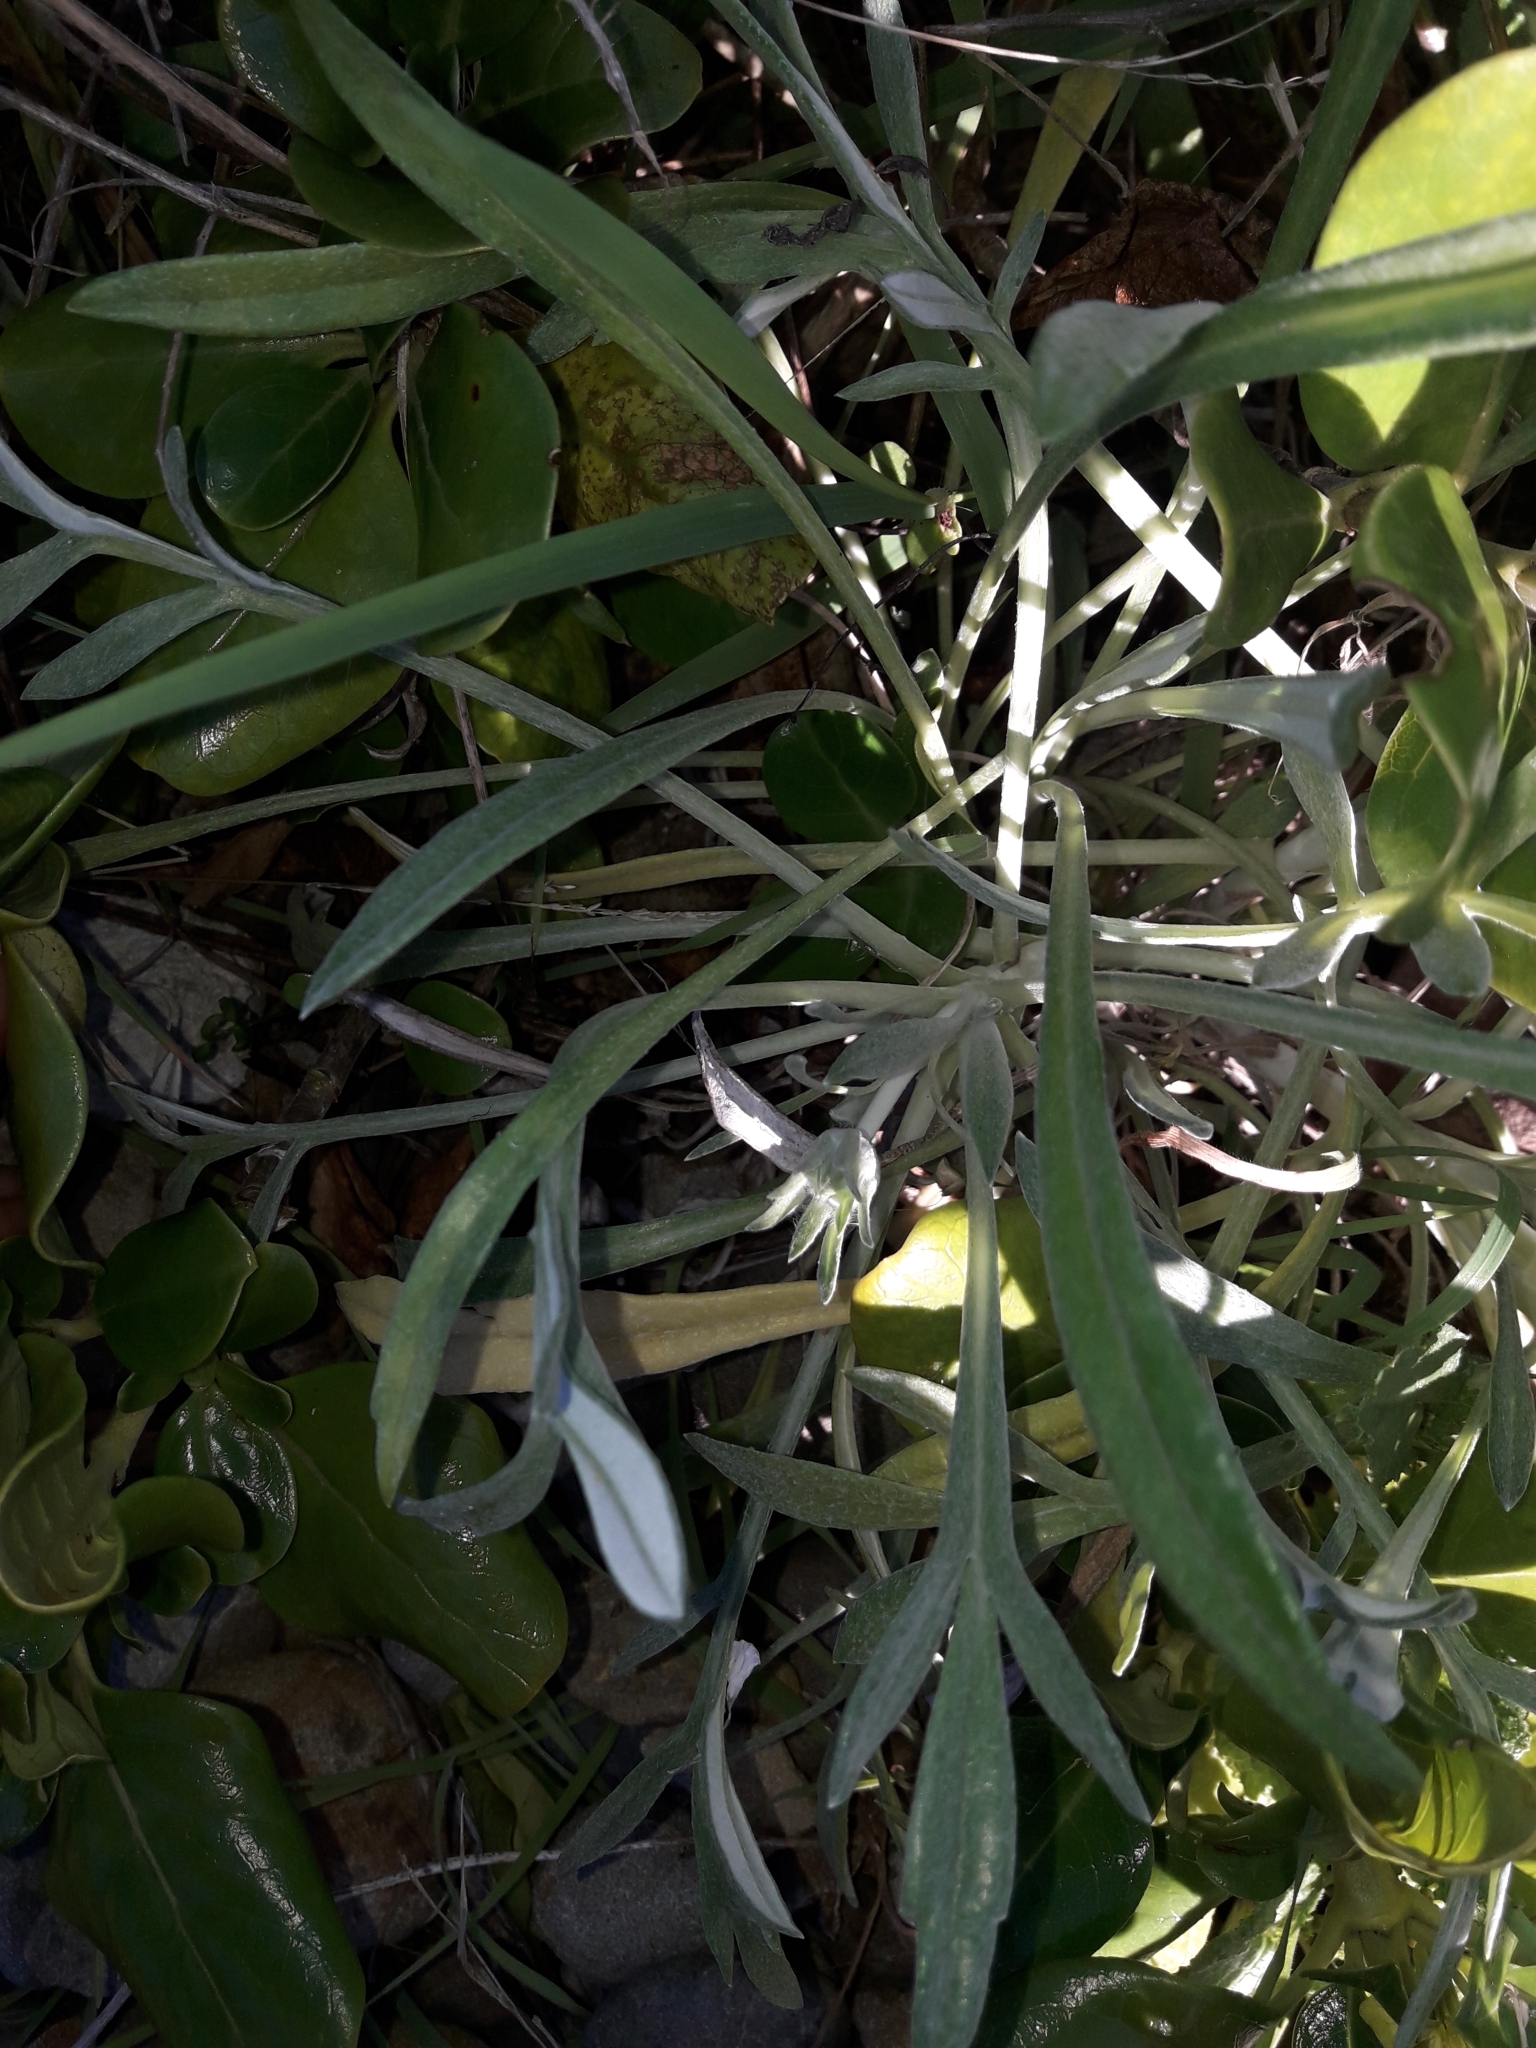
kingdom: Plantae
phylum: Tracheophyta
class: Magnoliopsida
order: Asterales
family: Asteraceae
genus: Gazania
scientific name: Gazania rigens
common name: Treasureflower
